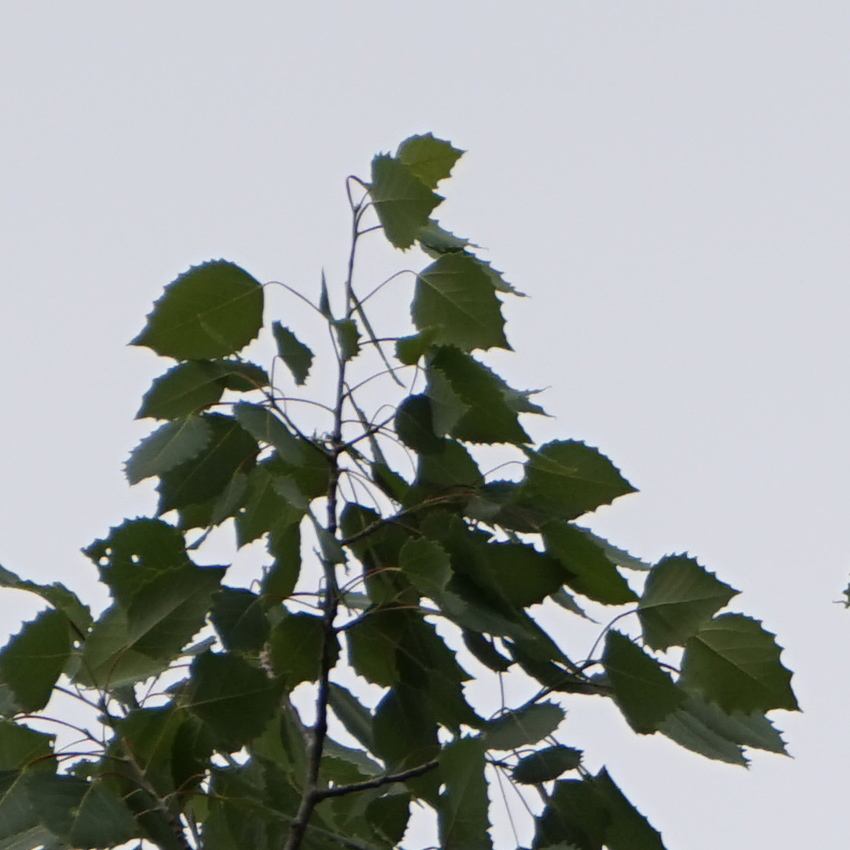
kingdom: Plantae
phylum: Tracheophyta
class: Magnoliopsida
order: Malpighiales
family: Salicaceae
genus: Populus
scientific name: Populus grandidentata
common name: Bigtooth aspen
